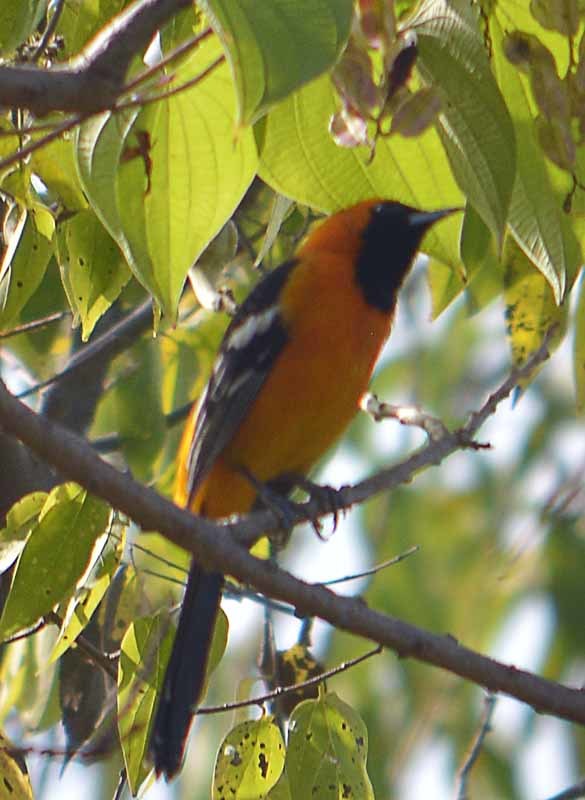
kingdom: Animalia
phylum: Chordata
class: Aves
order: Passeriformes
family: Icteridae
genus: Icterus
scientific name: Icterus cucullatus
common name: Hooded oriole
